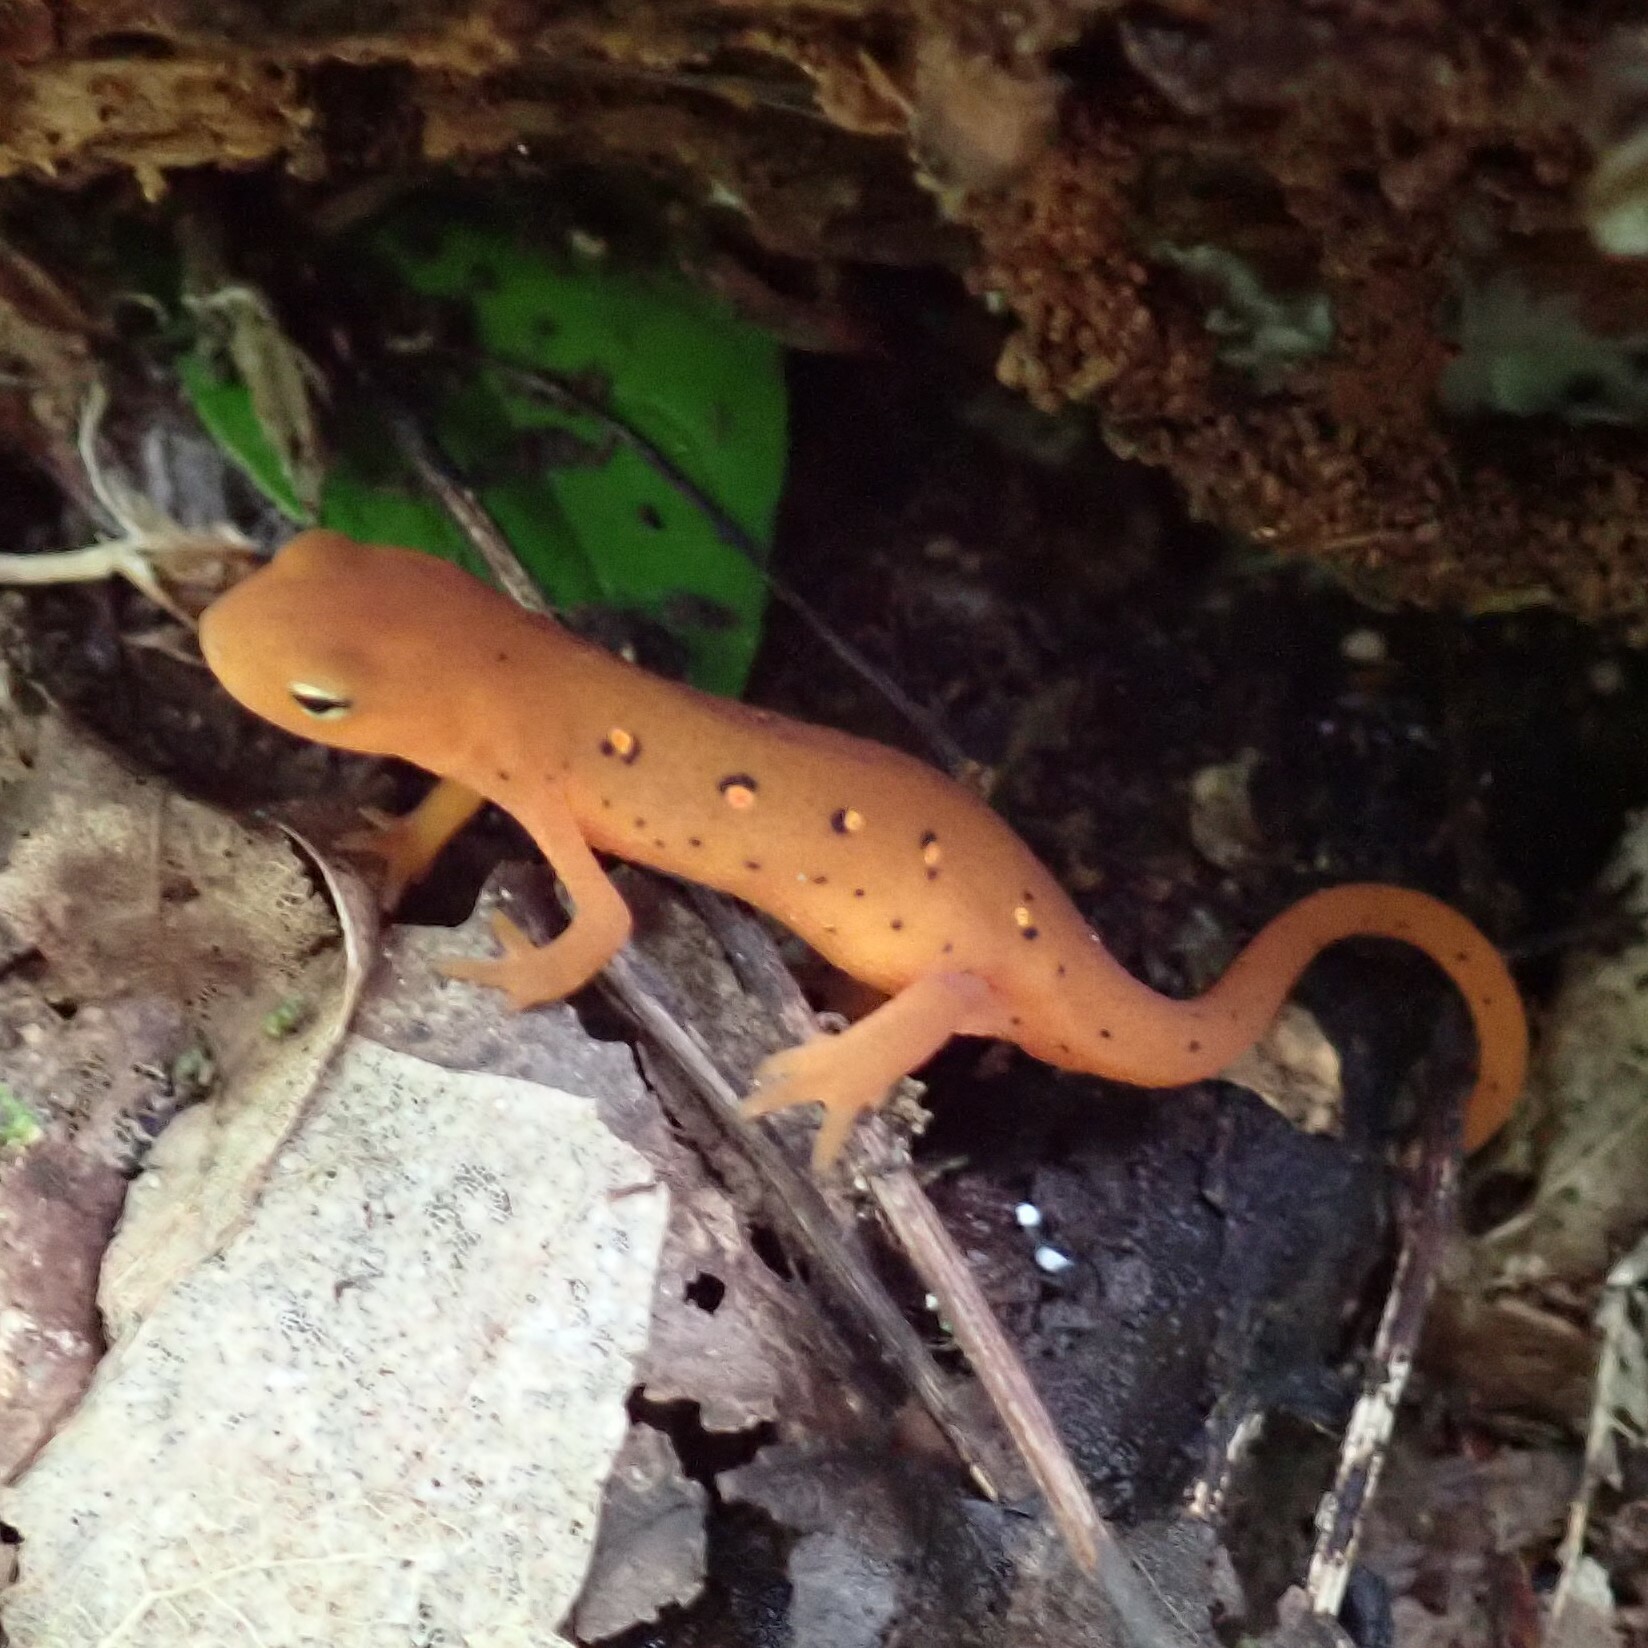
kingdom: Animalia
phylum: Chordata
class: Amphibia
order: Caudata
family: Salamandridae
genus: Notophthalmus
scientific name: Notophthalmus viridescens
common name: Eastern newt
